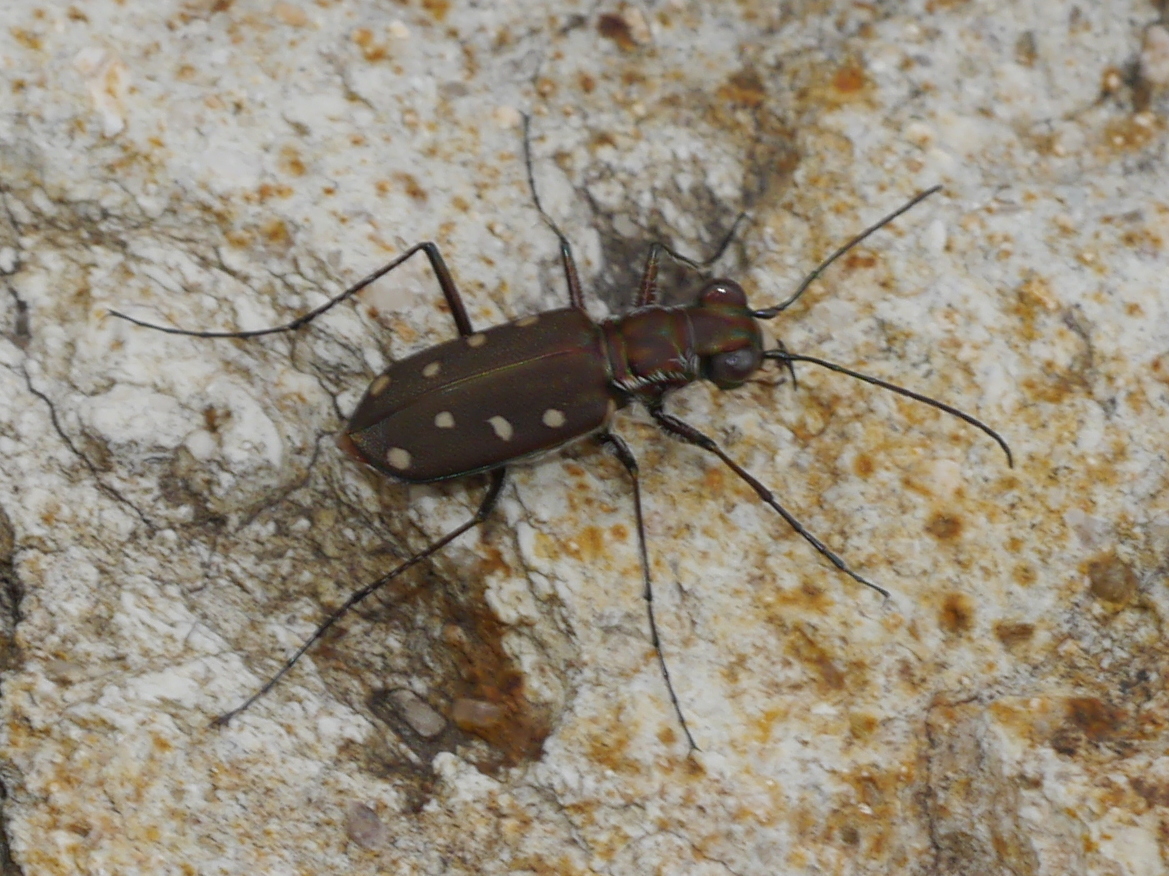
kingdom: Animalia
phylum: Arthropoda
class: Insecta
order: Coleoptera
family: Carabidae
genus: Cicindela
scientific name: Cicindela ocellata
